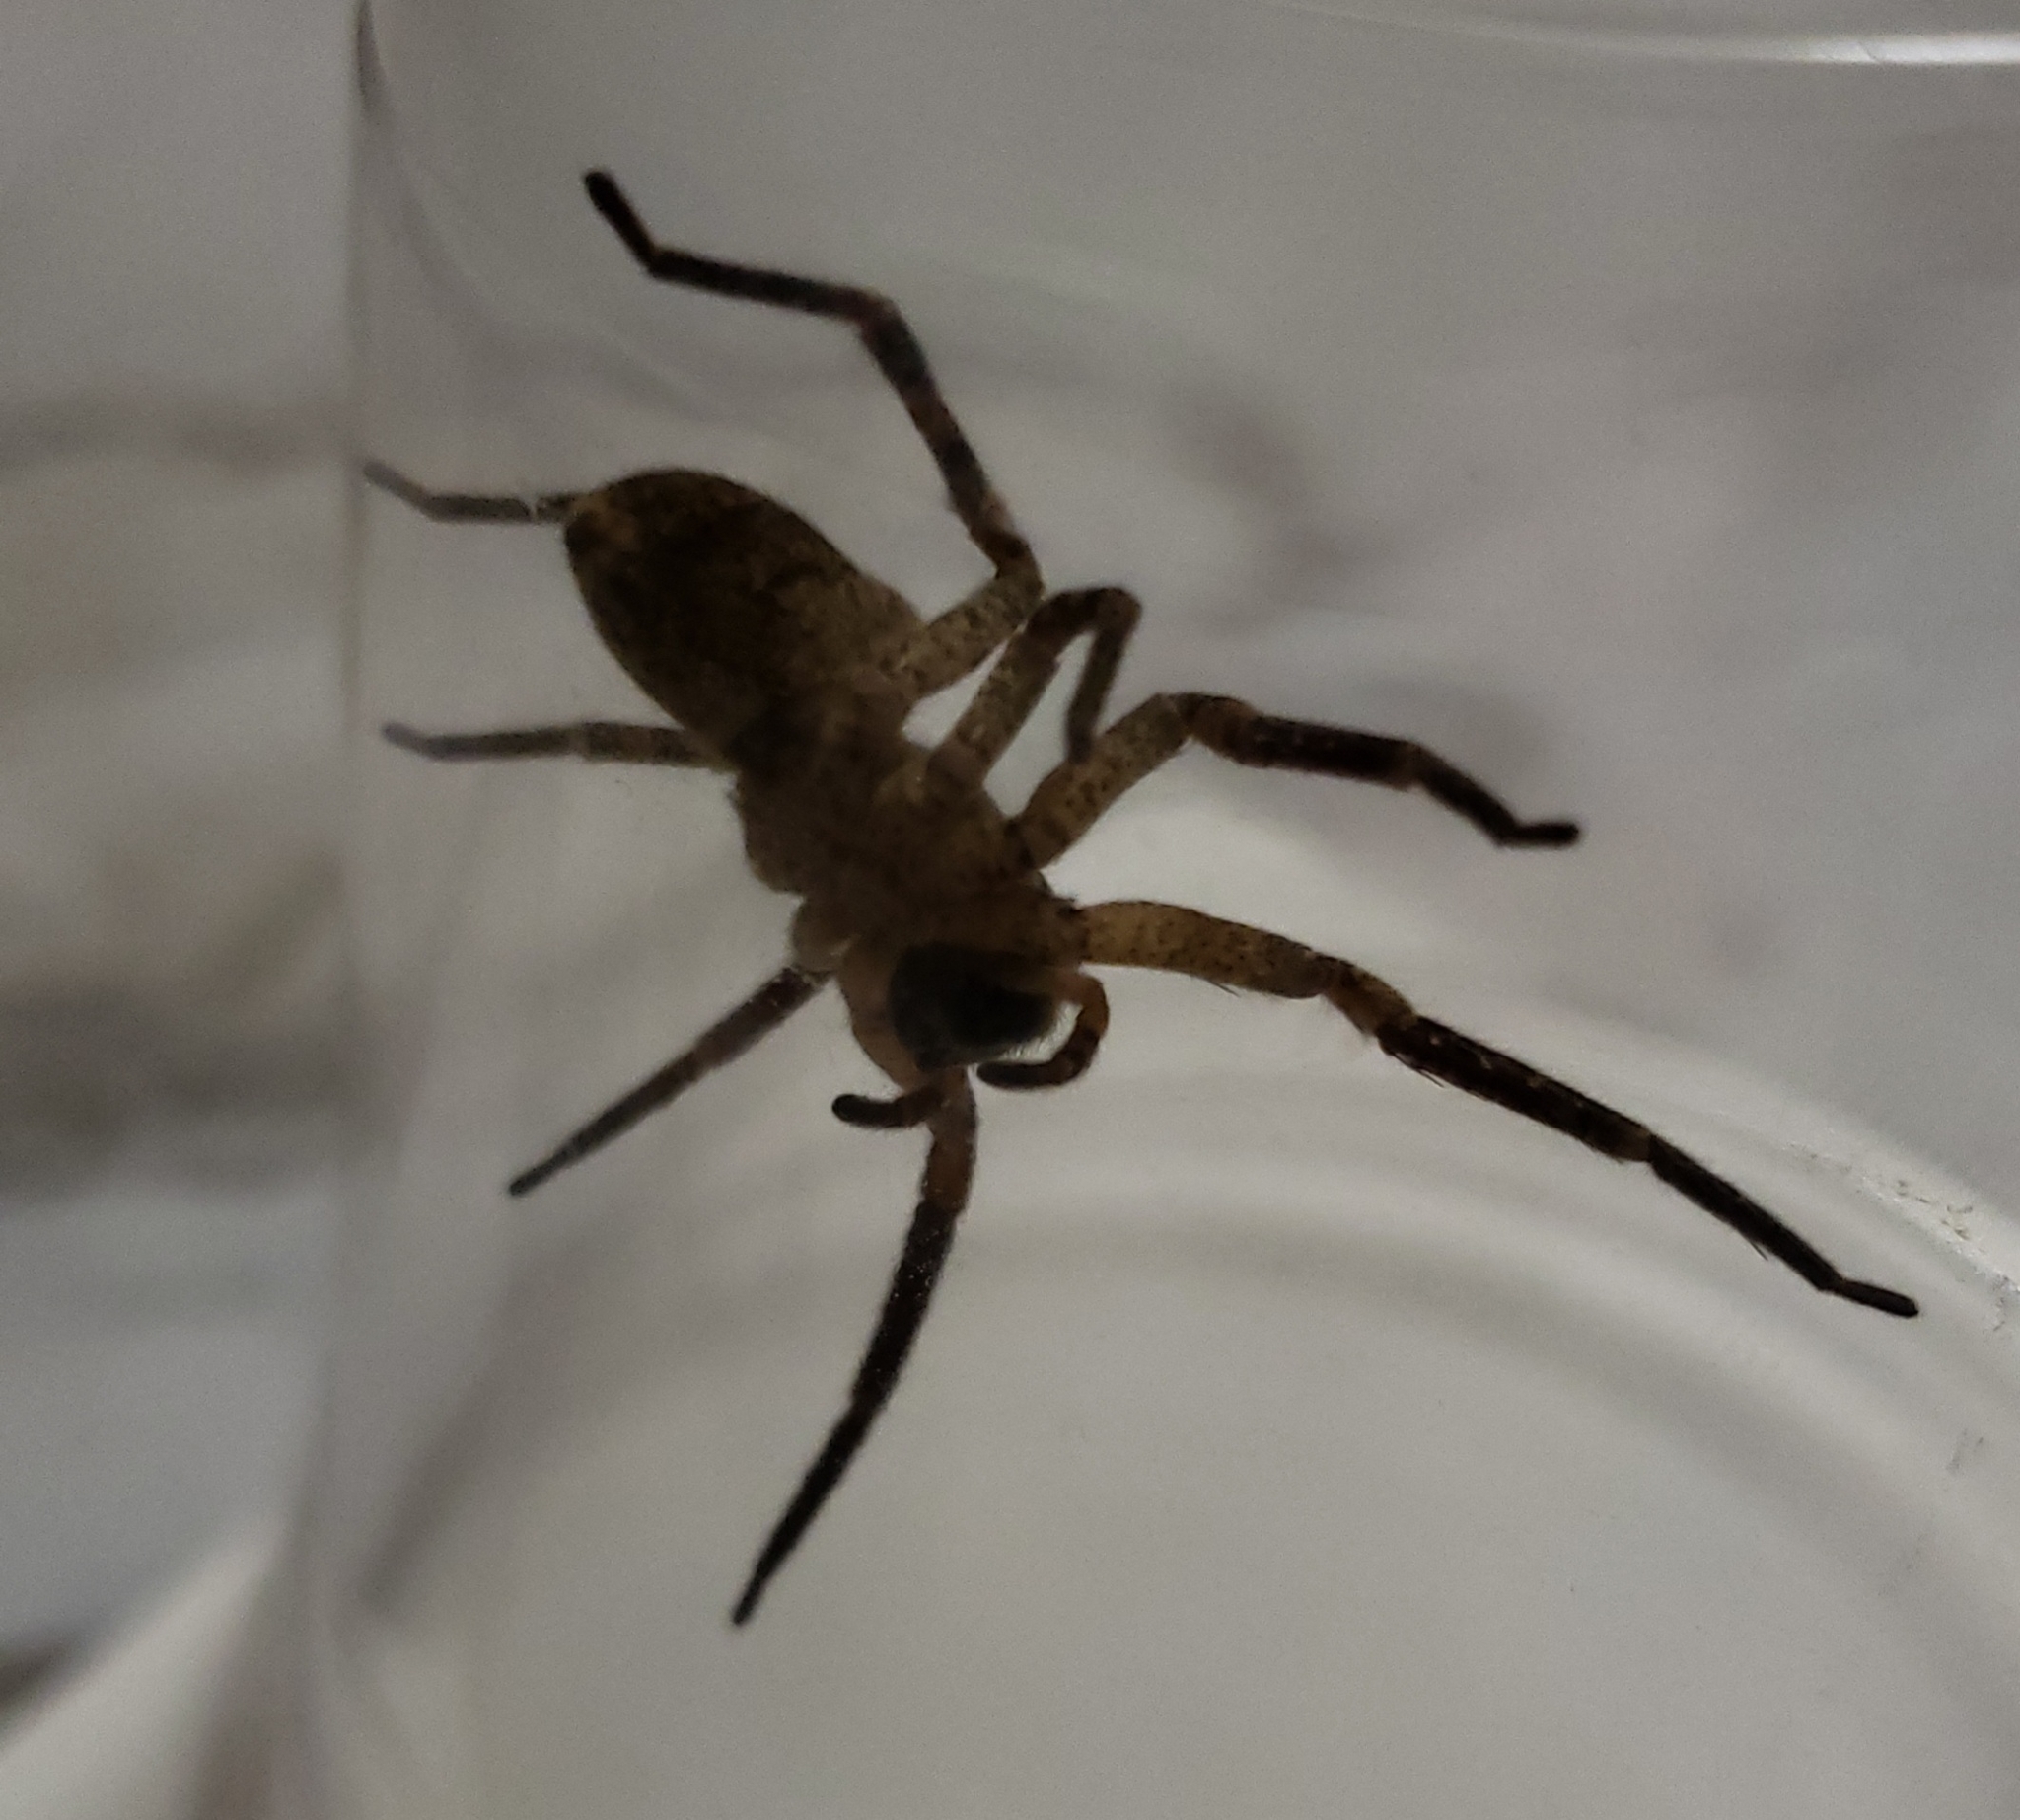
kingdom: Animalia
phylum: Arthropoda
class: Arachnida
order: Araneae
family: Zoropsidae
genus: Zoropsis
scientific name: Zoropsis spinimana
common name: Zoropsid spider
